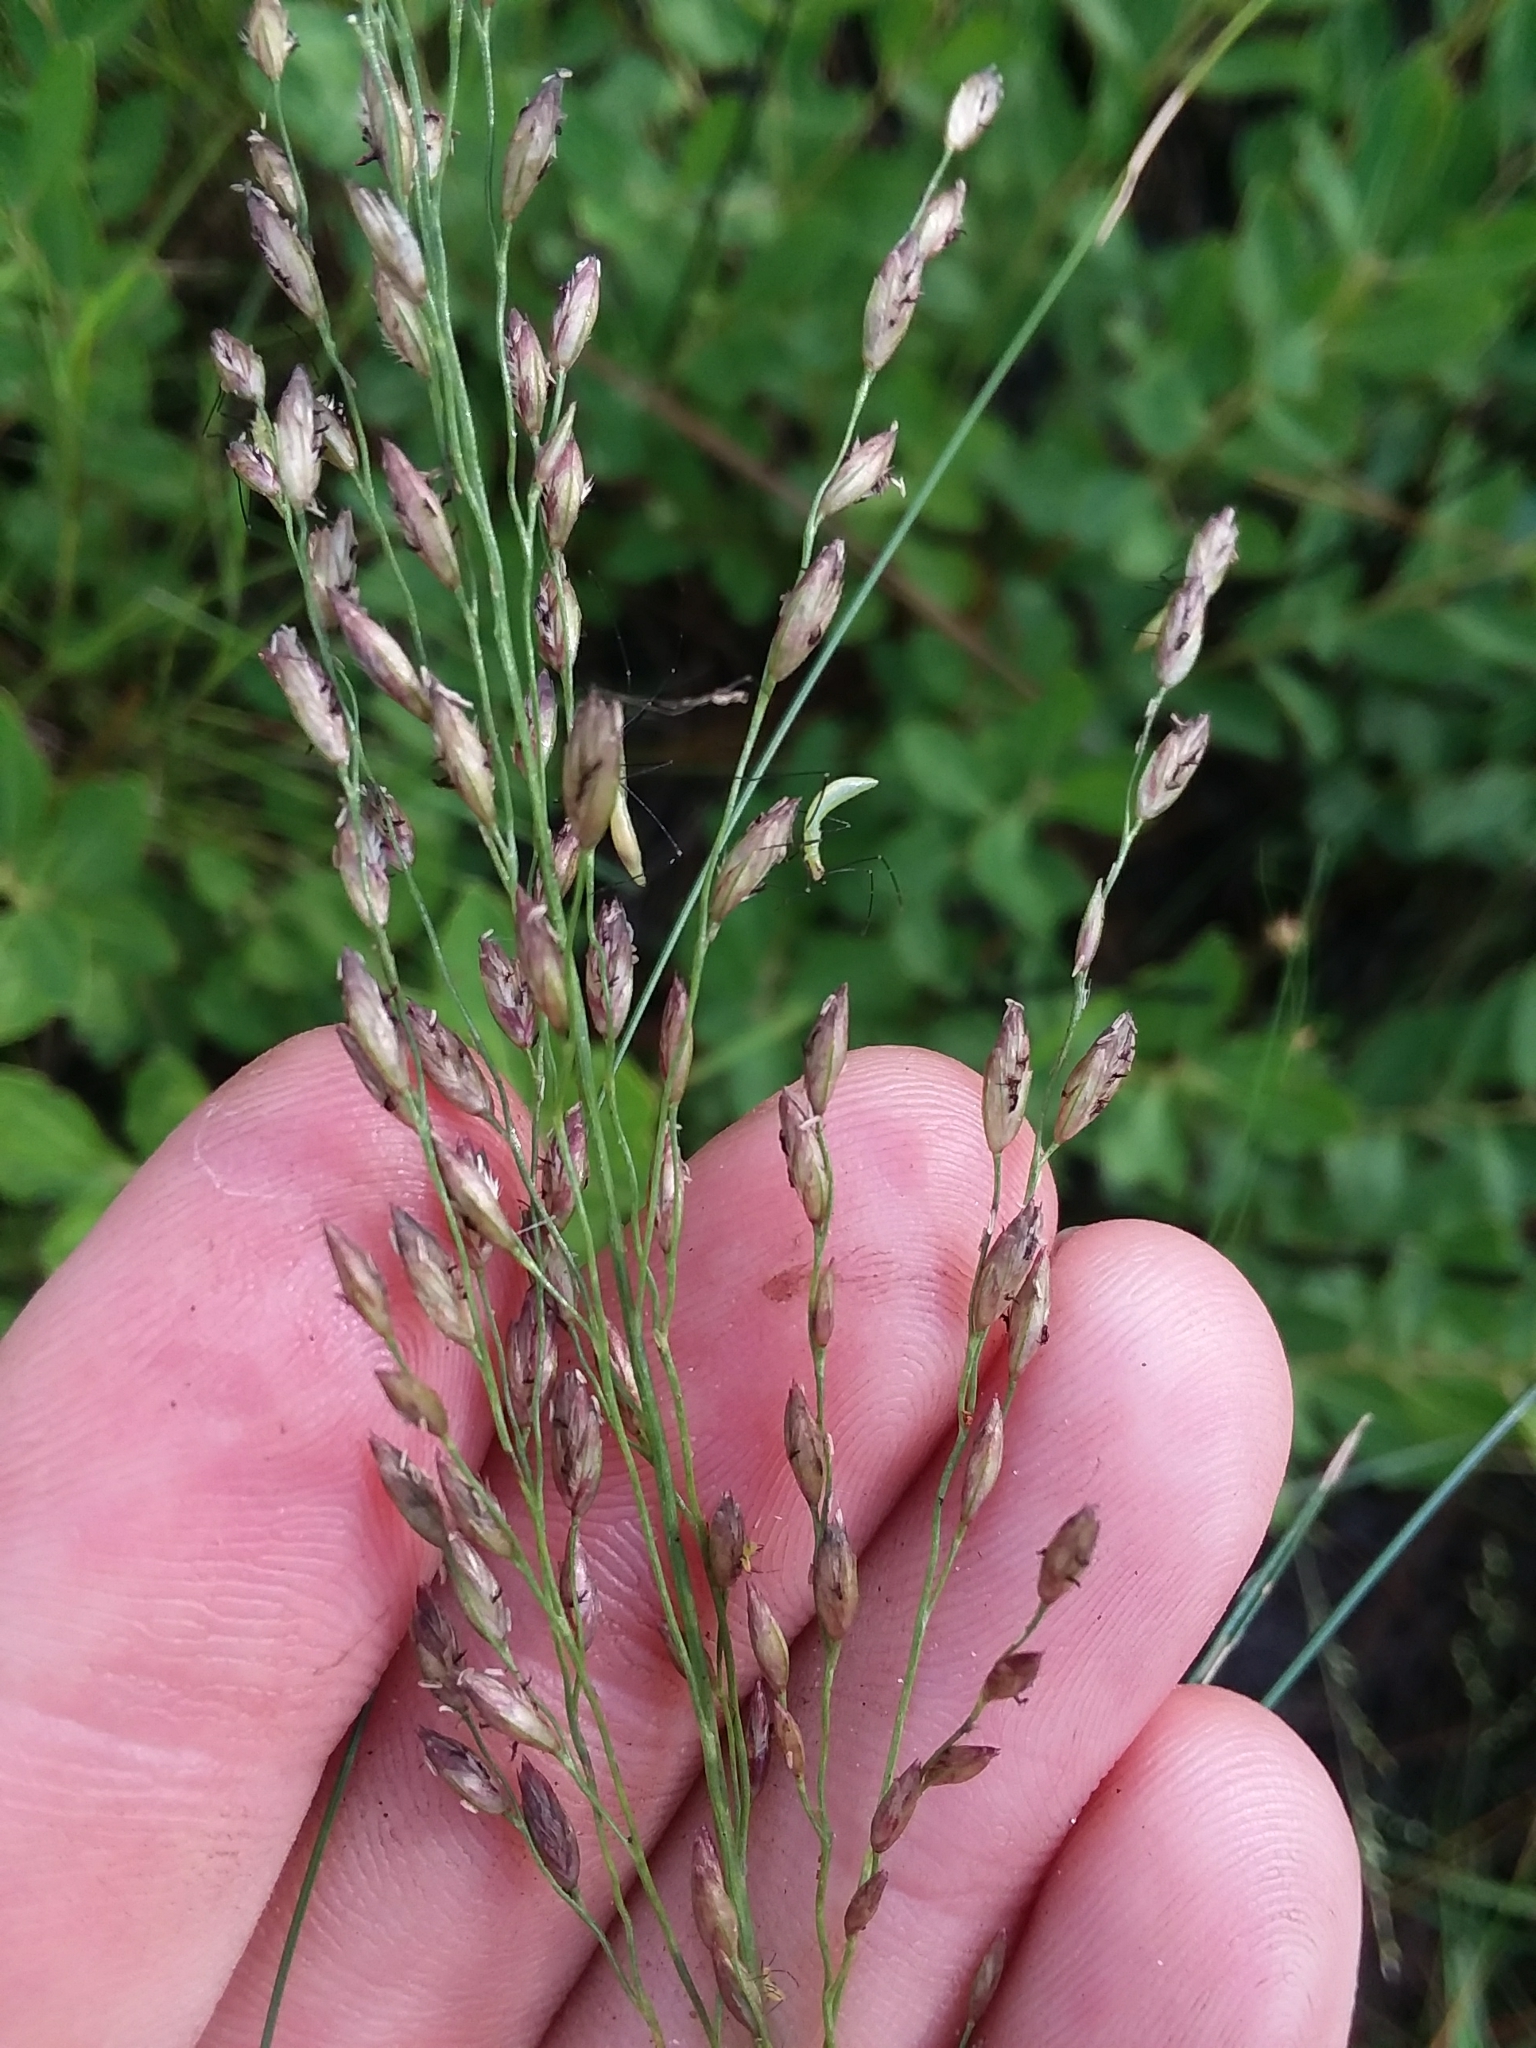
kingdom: Plantae
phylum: Tracheophyta
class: Liliopsida
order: Poales
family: Poaceae
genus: Tridens
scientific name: Tridens ambiguus
